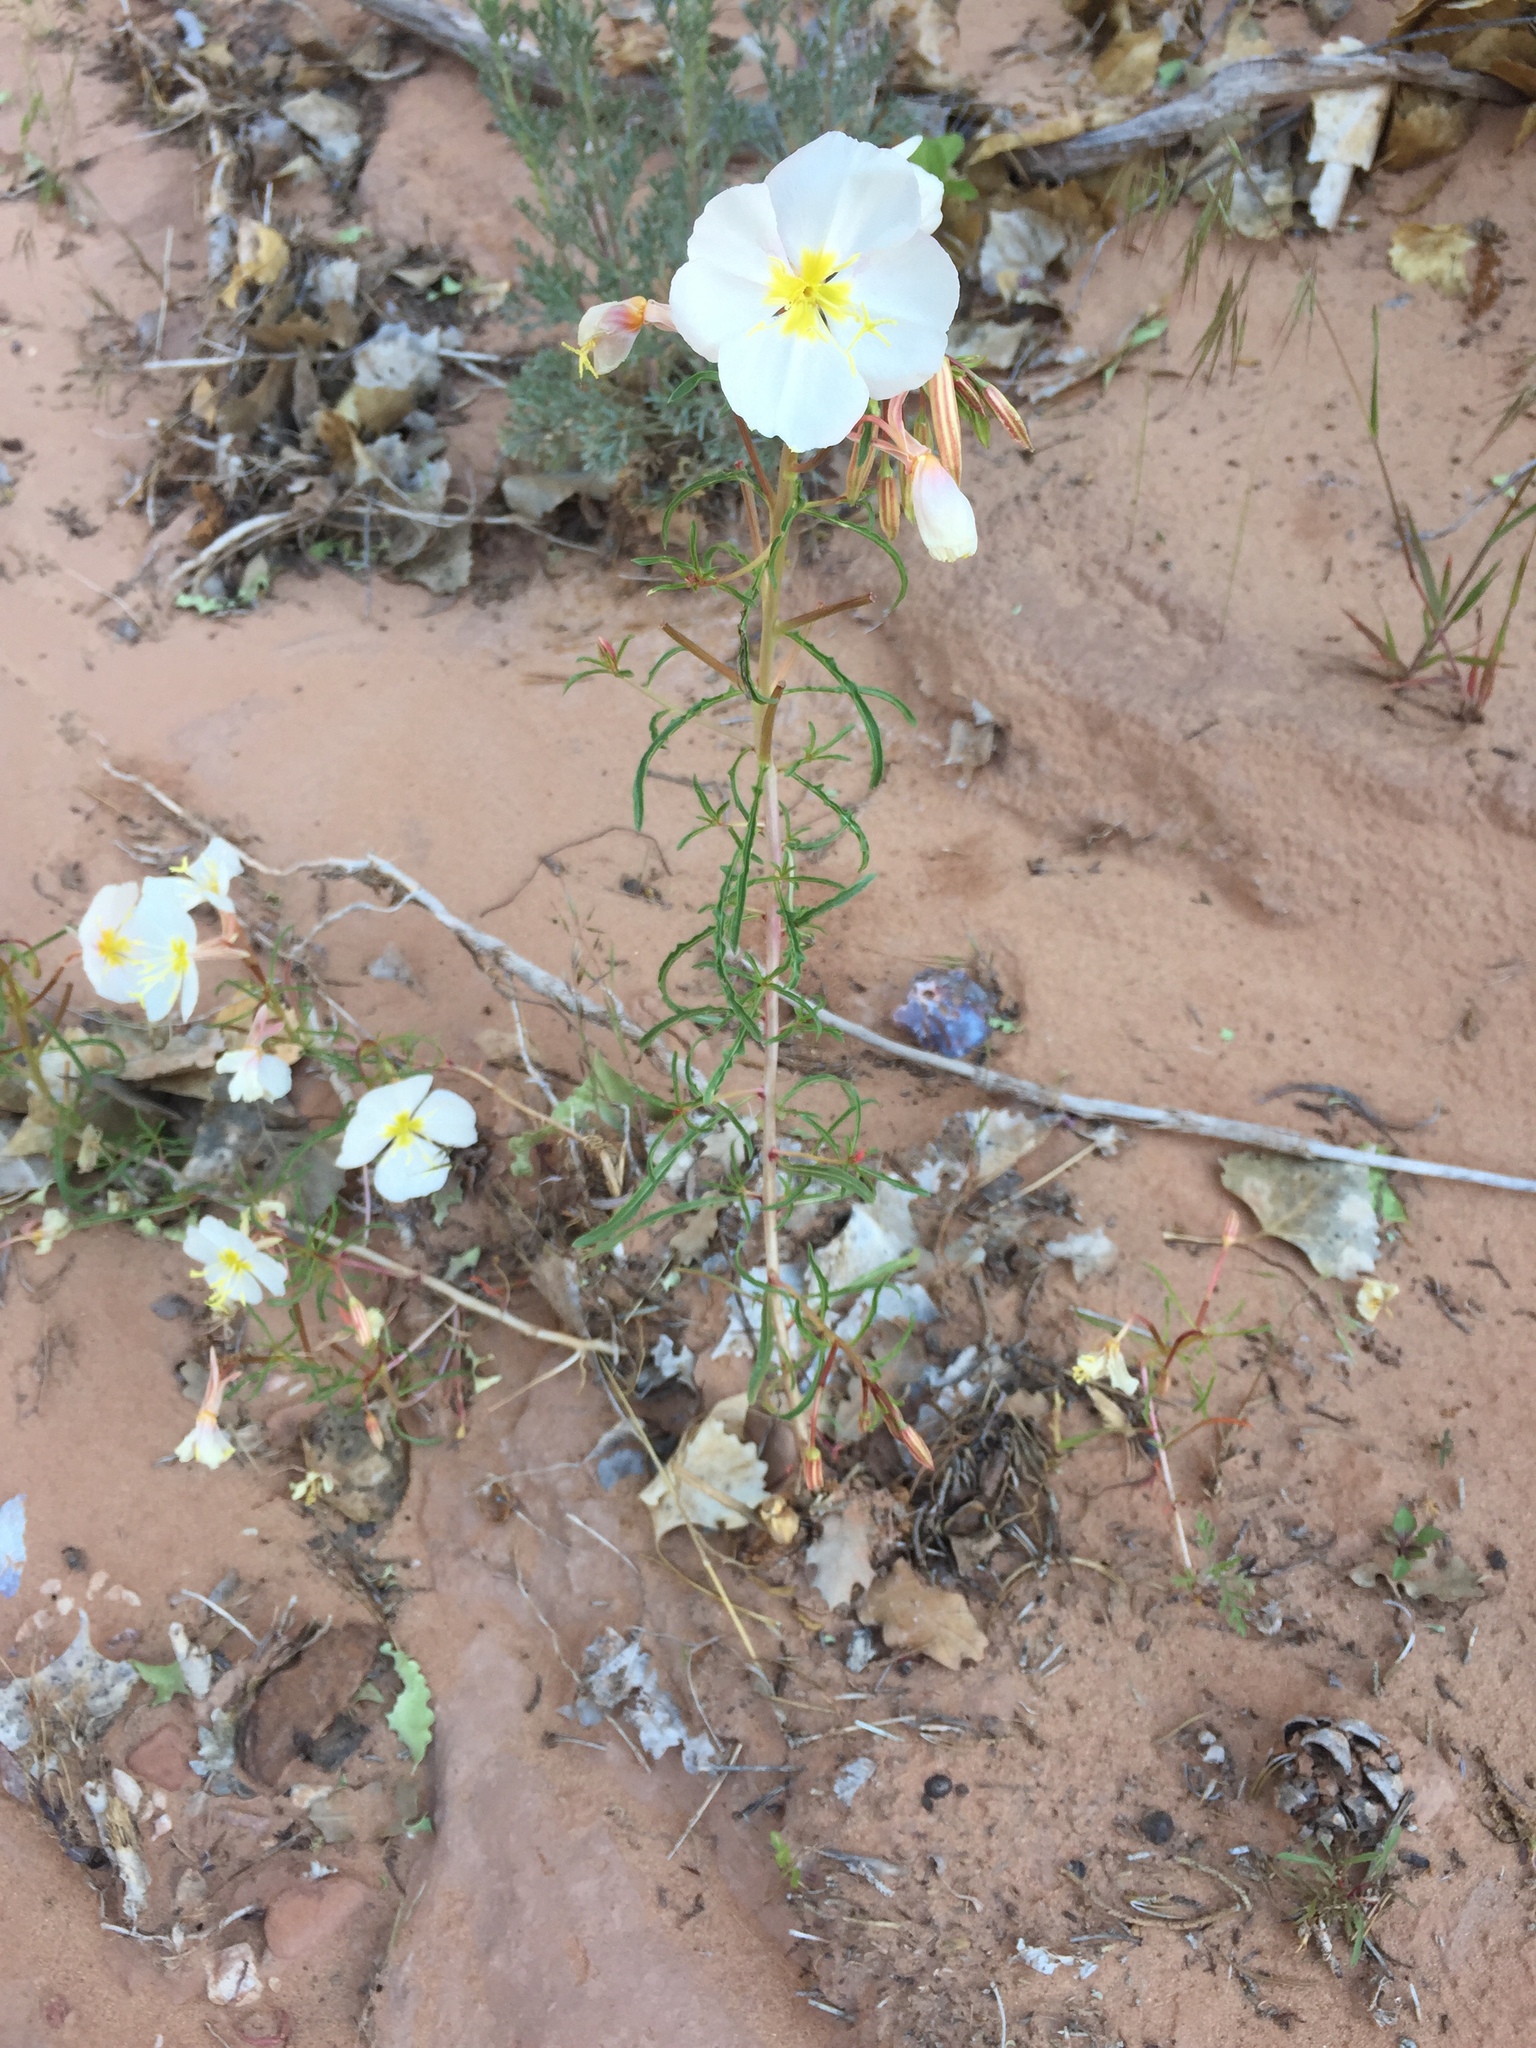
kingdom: Plantae
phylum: Tracheophyta
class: Magnoliopsida
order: Myrtales
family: Onagraceae
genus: Oenothera
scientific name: Oenothera pallida
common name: Pale evening-primrose
